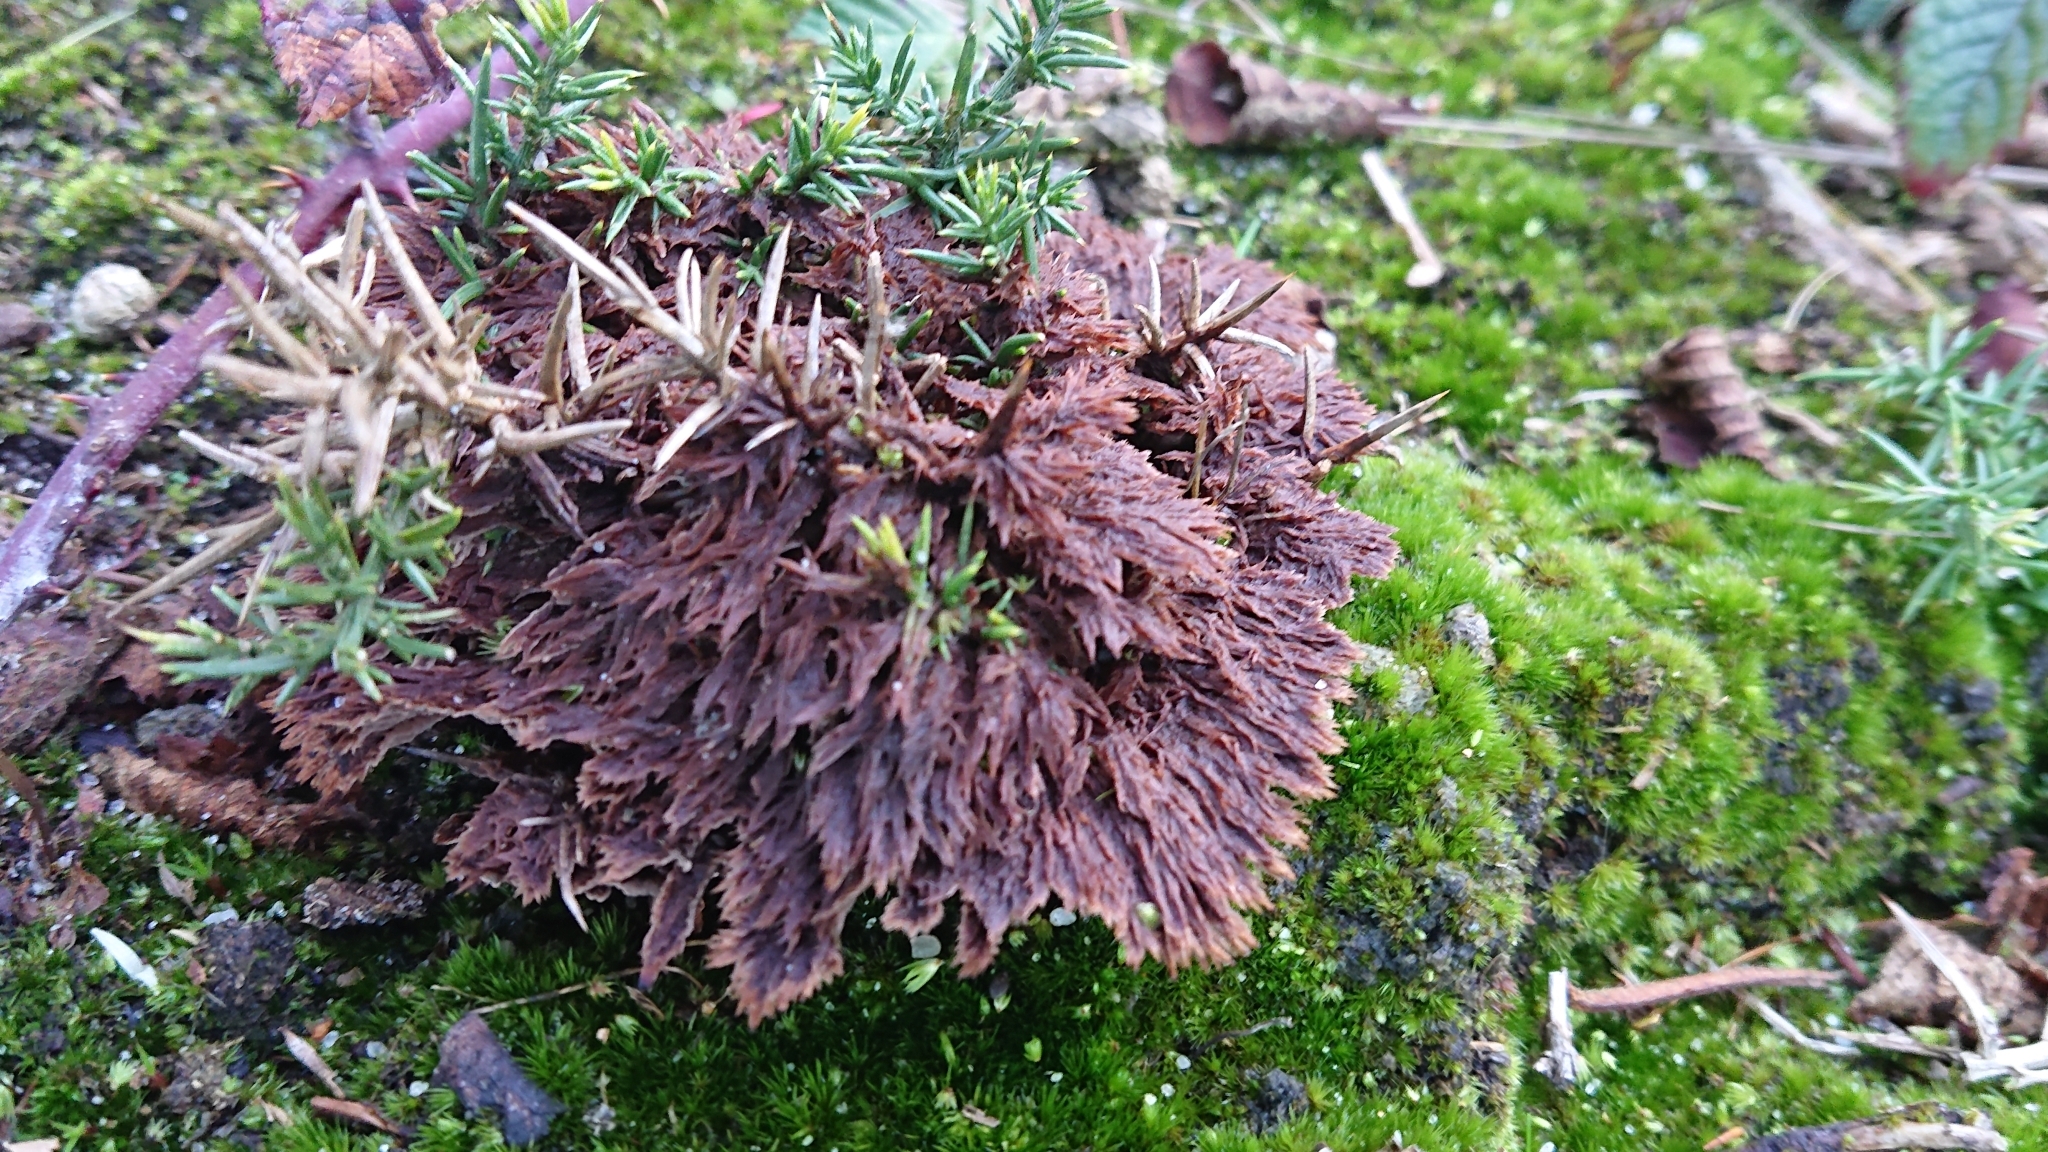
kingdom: Fungi
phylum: Basidiomycota
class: Agaricomycetes
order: Thelephorales
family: Thelephoraceae
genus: Thelephora
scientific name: Thelephora terrestris
